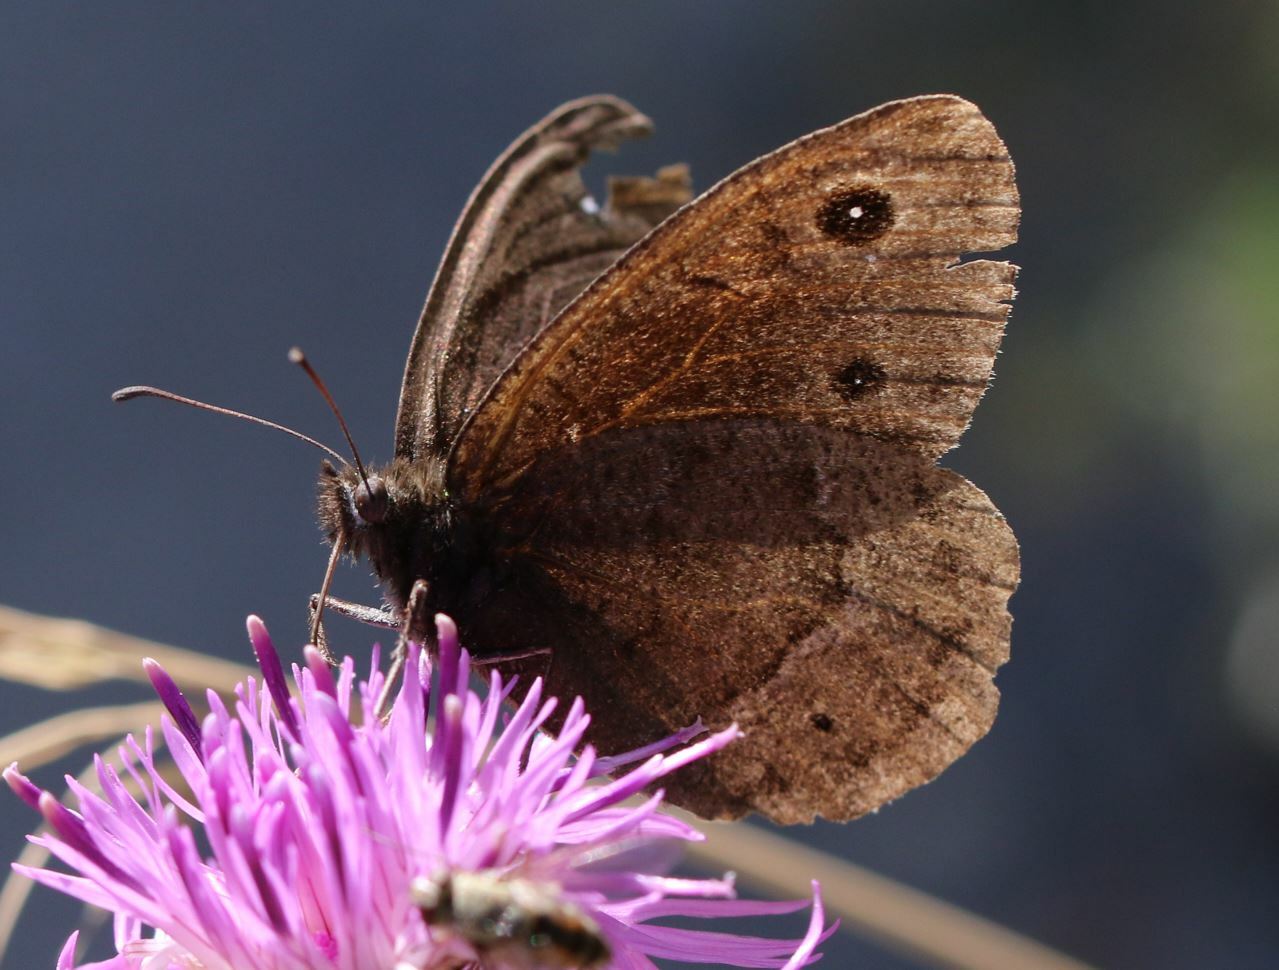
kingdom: Animalia
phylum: Arthropoda
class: Insecta
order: Lepidoptera
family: Nymphalidae
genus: Satyrus
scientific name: Satyrus ferula
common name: Great sooty satyr
